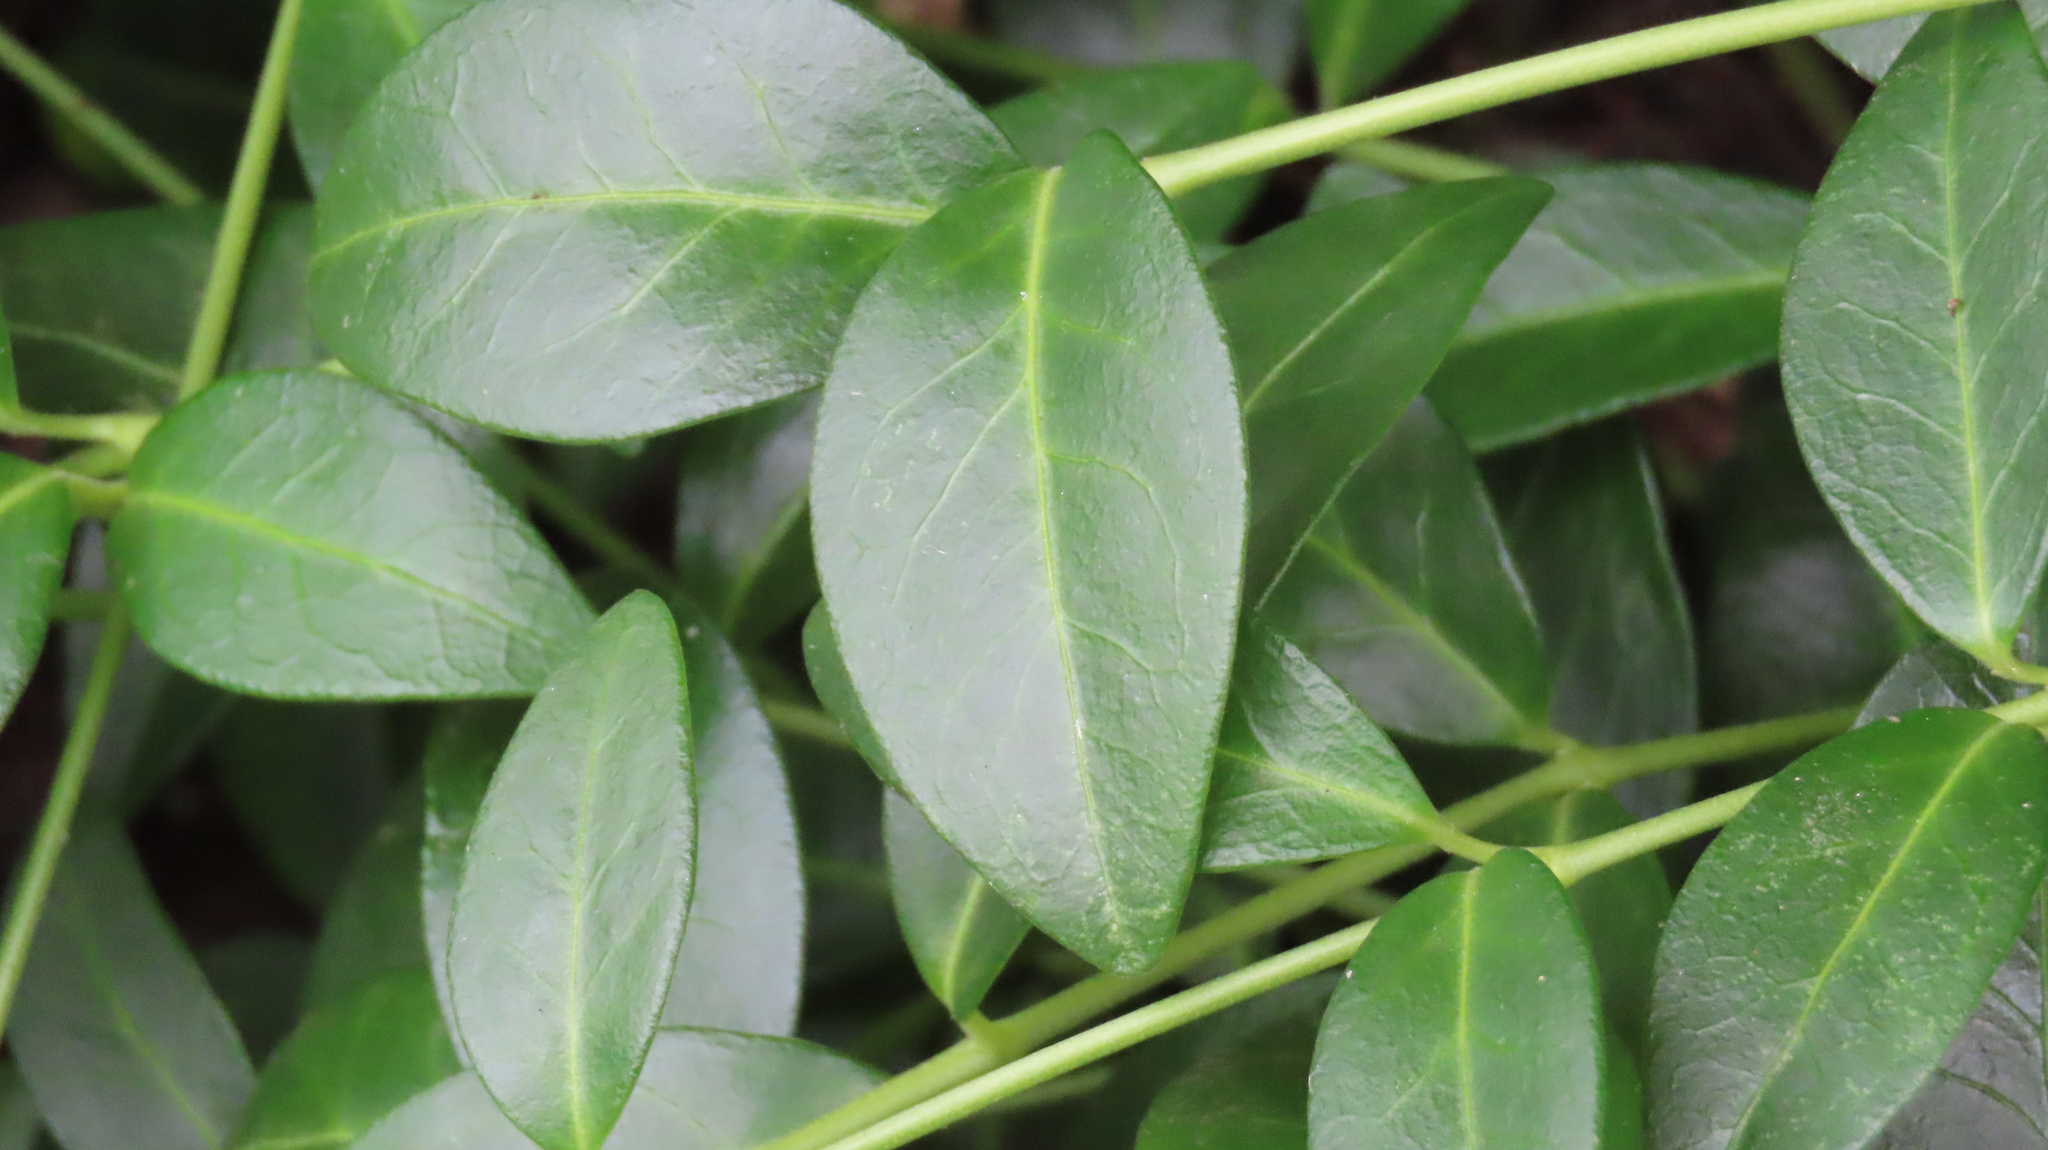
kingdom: Plantae
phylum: Tracheophyta
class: Magnoliopsida
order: Gentianales
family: Apocynaceae
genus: Vinca
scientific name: Vinca minor
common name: Lesser periwinkle
